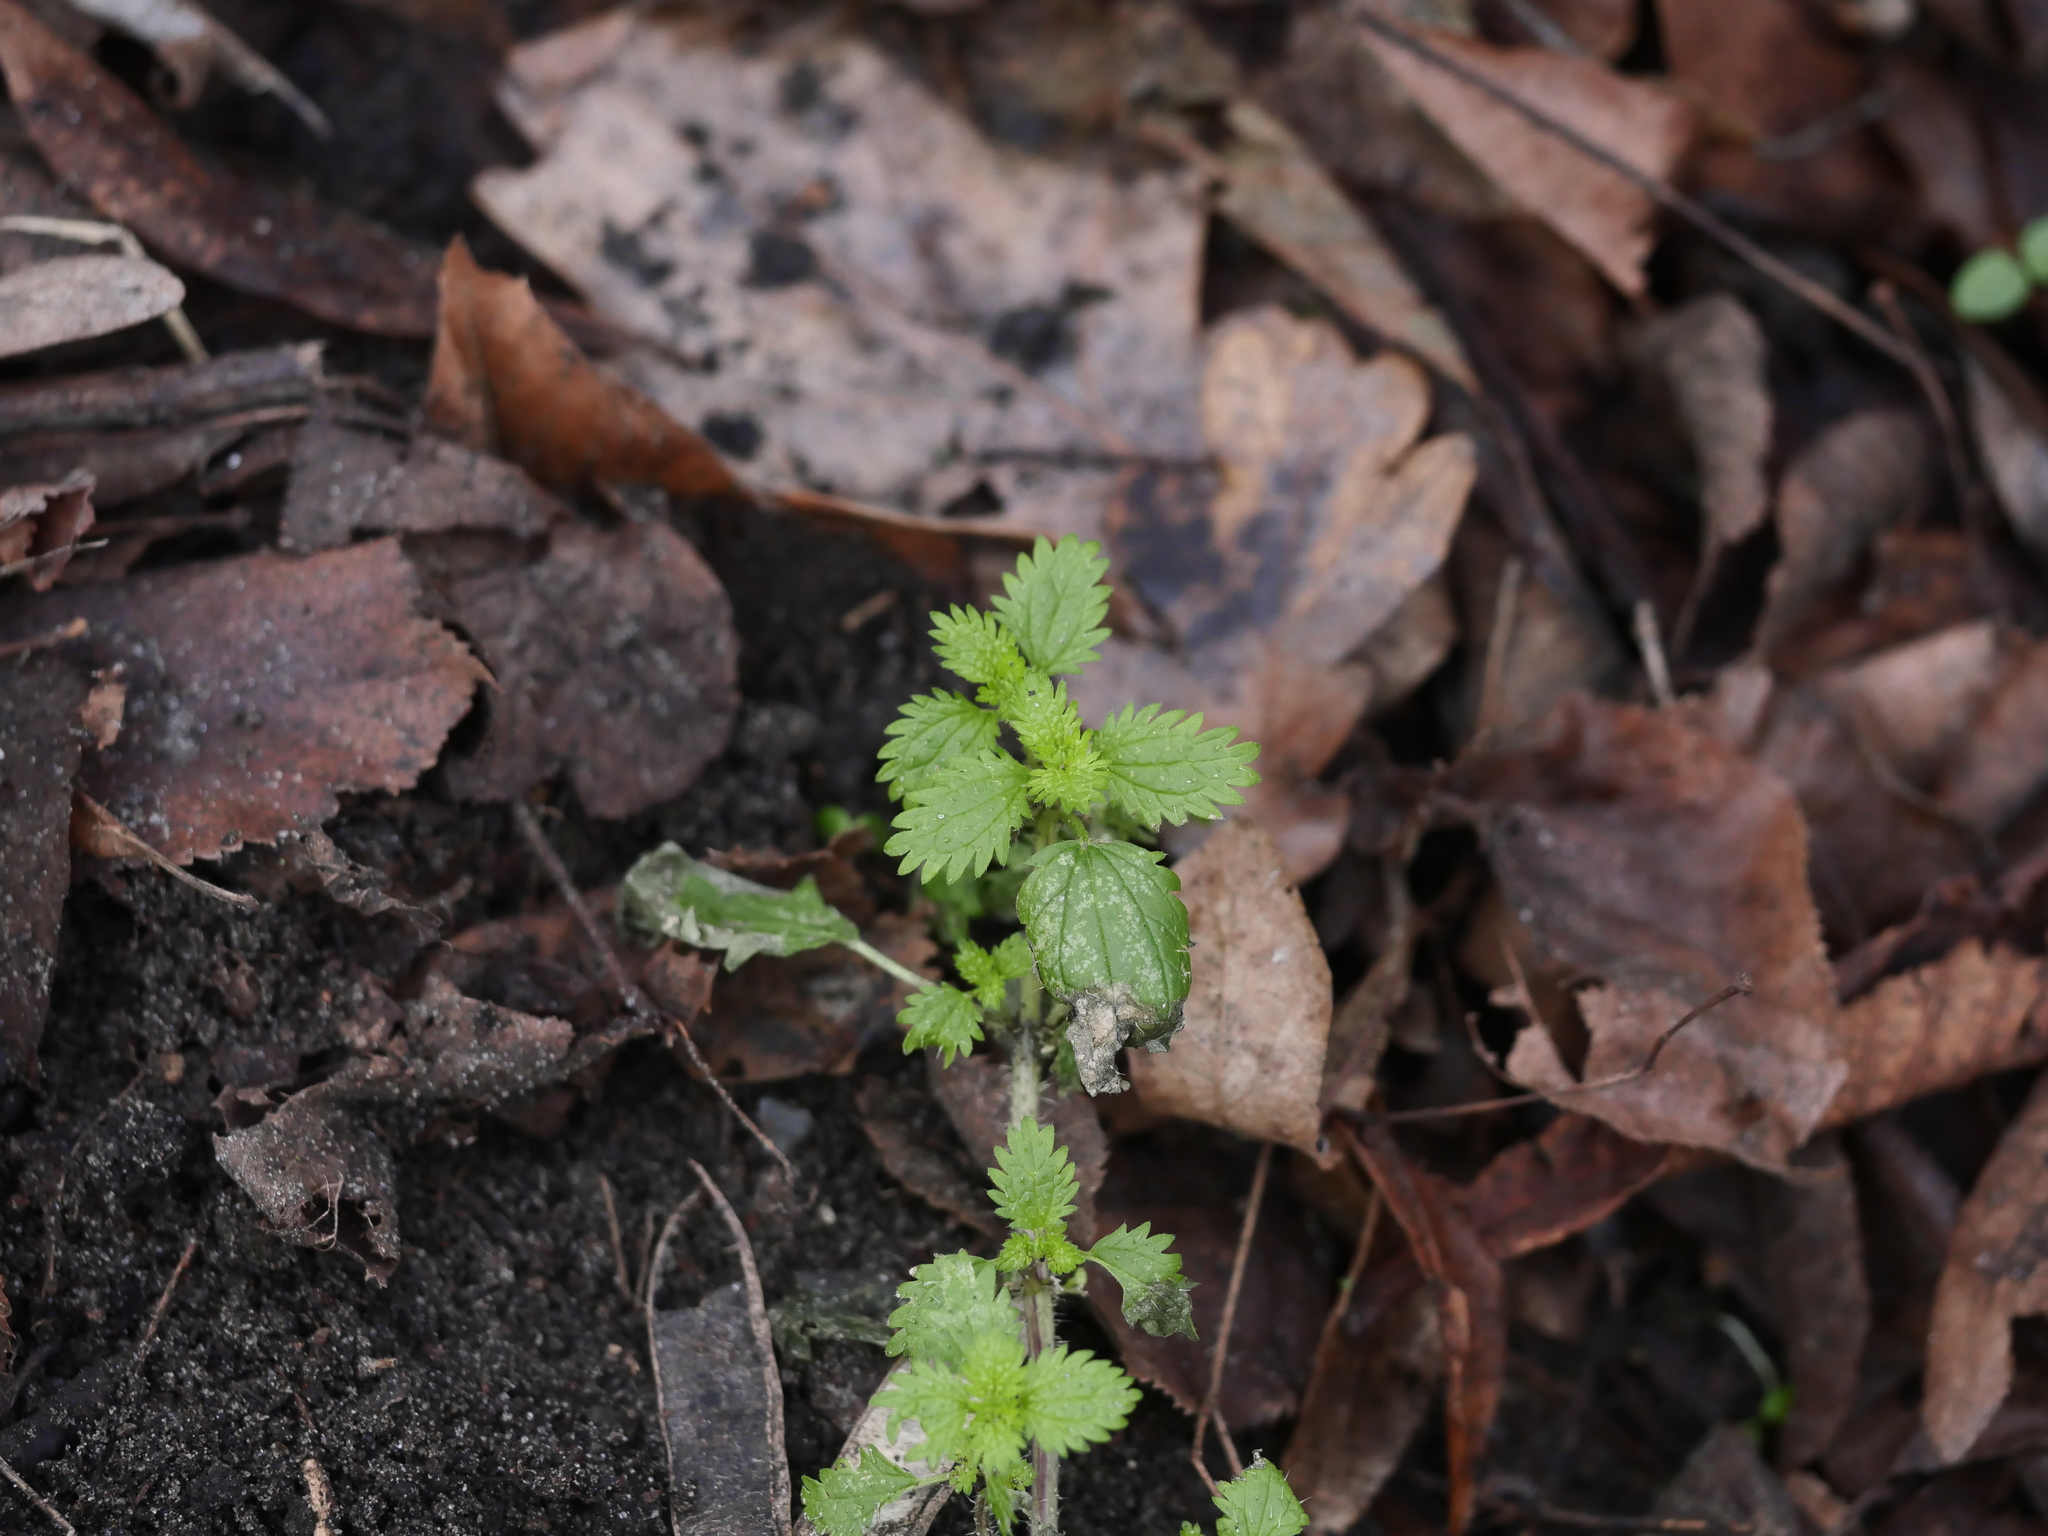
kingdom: Plantae
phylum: Tracheophyta
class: Magnoliopsida
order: Rosales
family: Urticaceae
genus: Urtica
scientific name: Urtica urens
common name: Dwarf nettle
